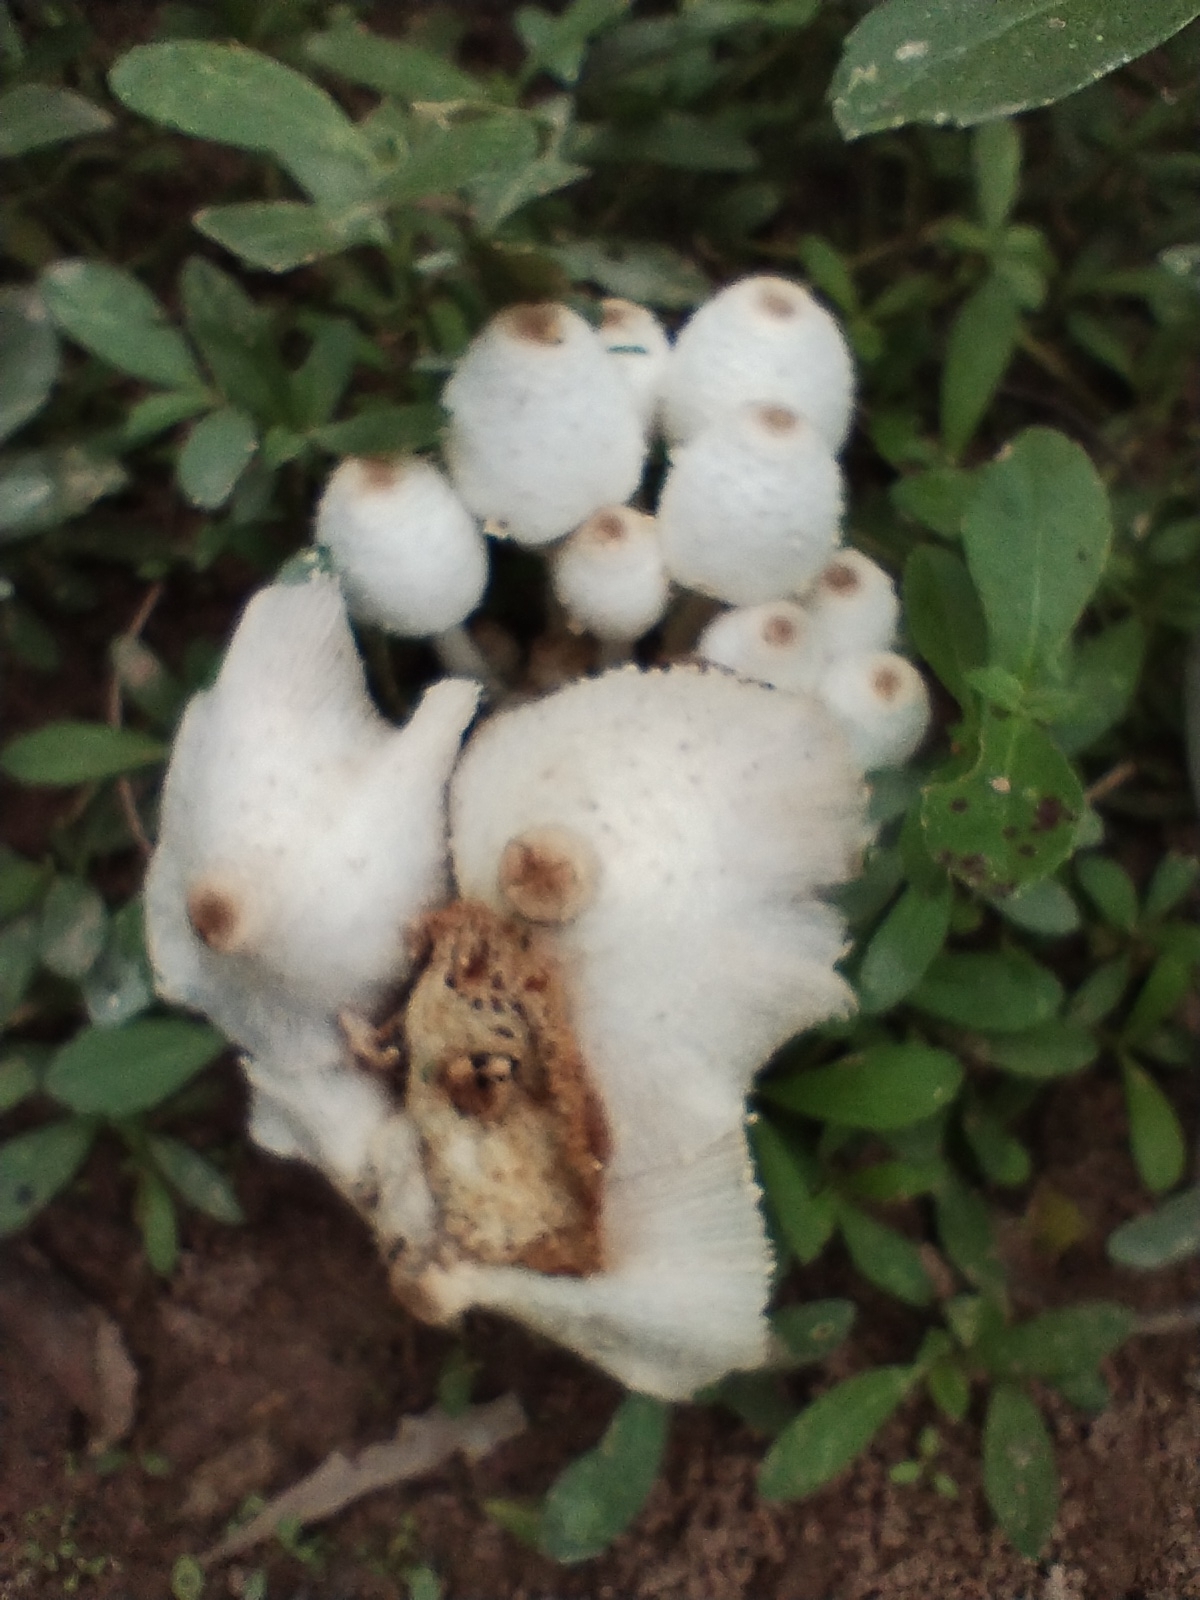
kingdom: Fungi
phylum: Basidiomycota
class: Agaricomycetes
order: Agaricales
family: Agaricaceae
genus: Leucocoprinus
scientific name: Leucocoprinus cepistipes
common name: Onion-stalk parasol
